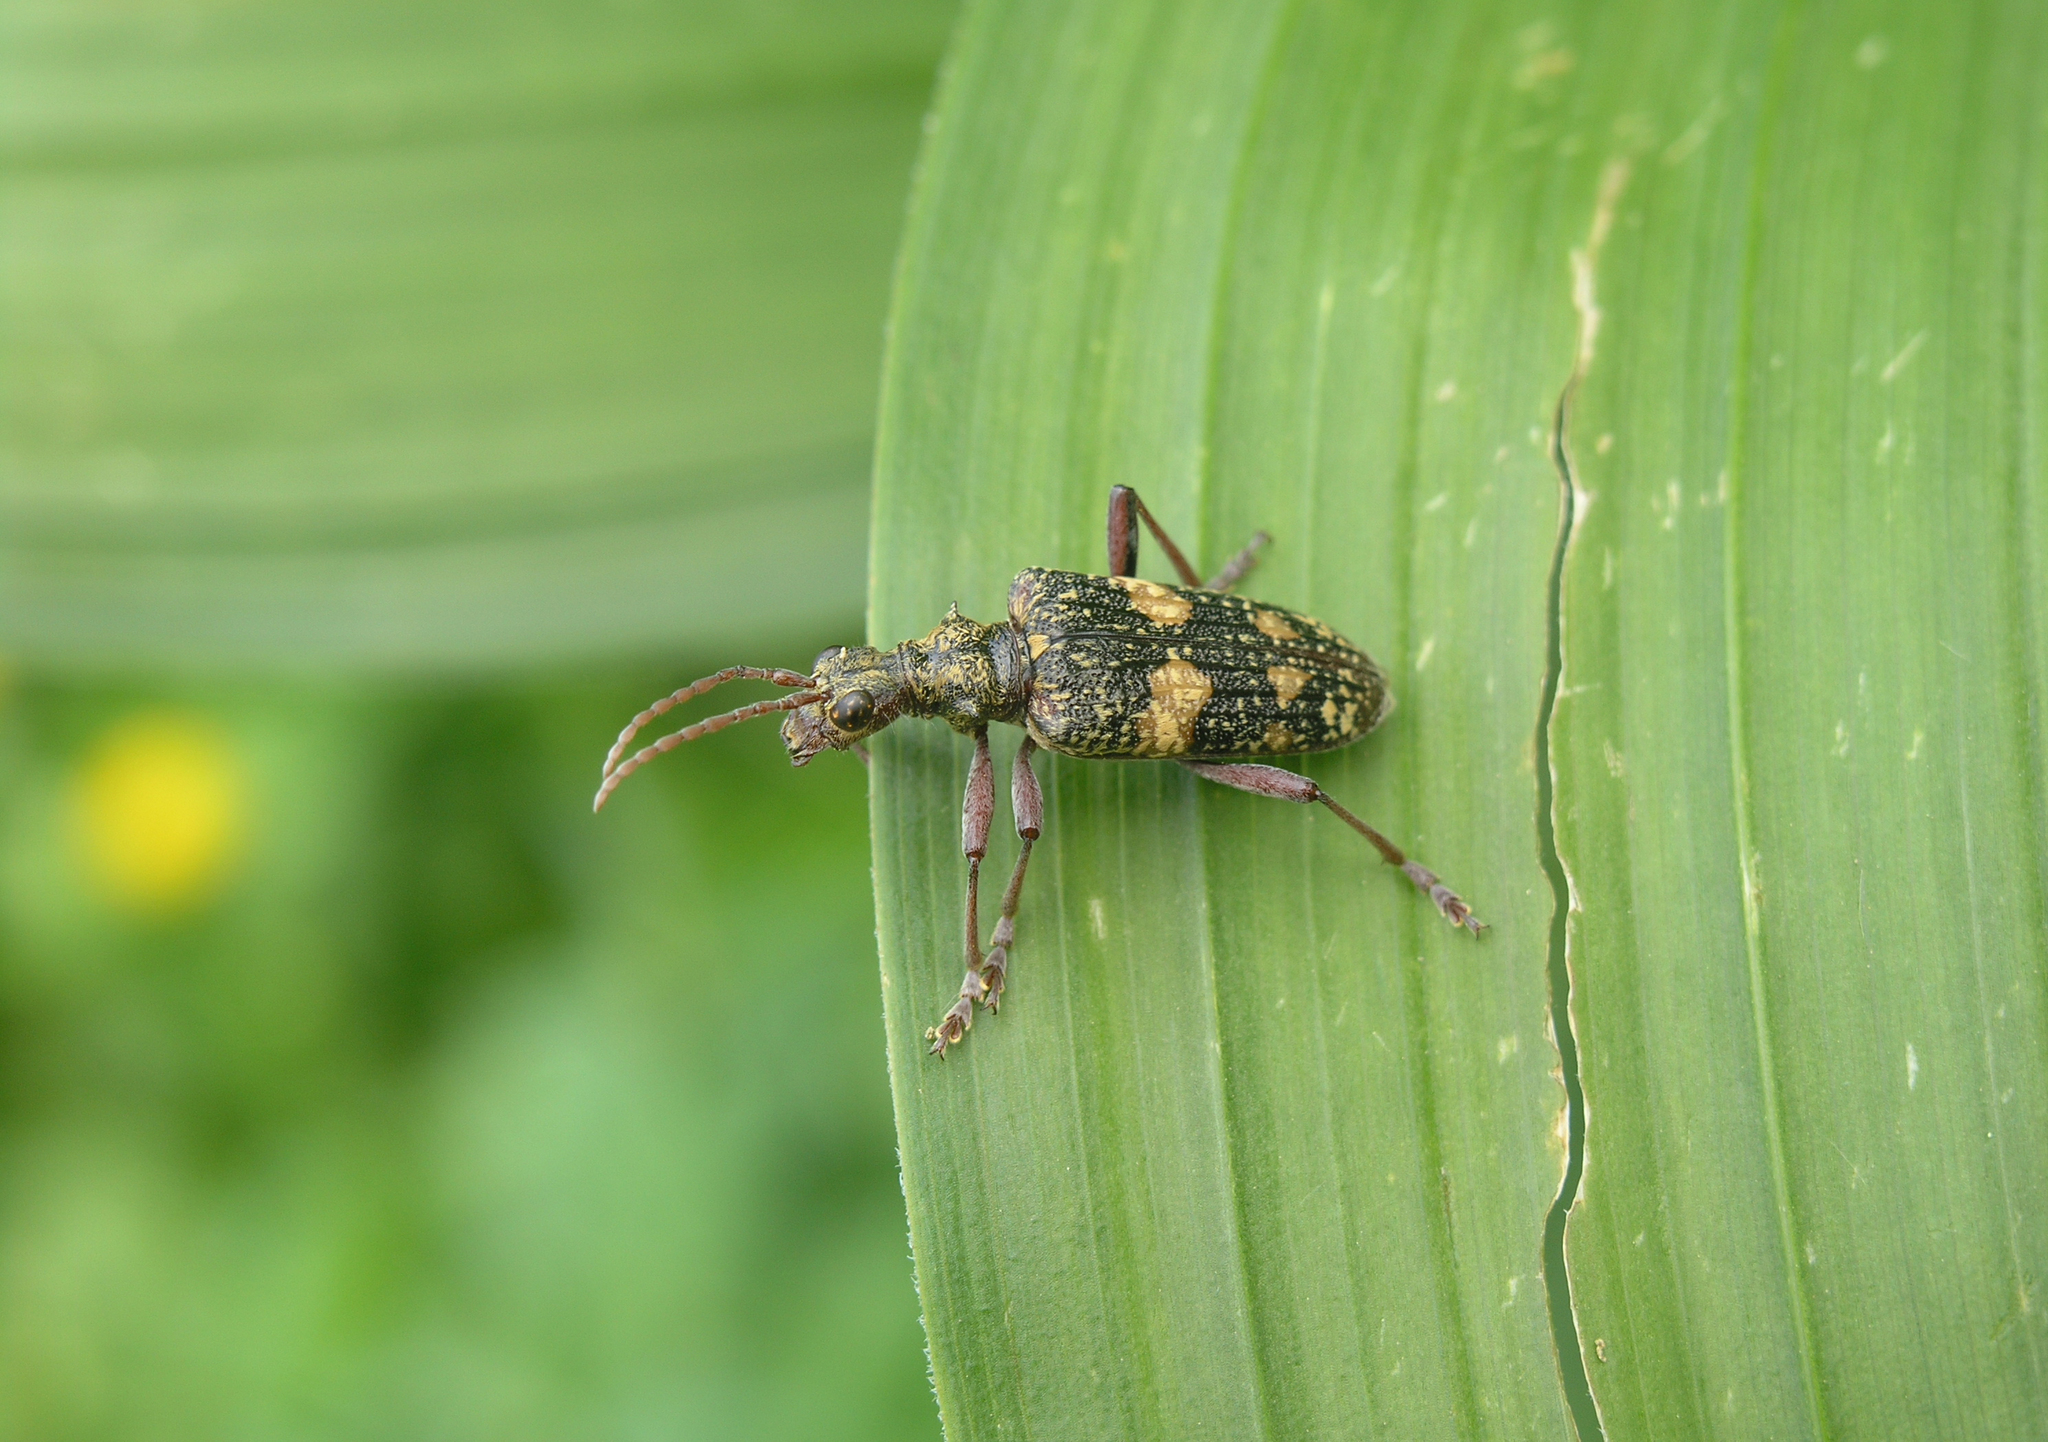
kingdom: Plantae
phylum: Tracheophyta
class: Liliopsida
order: Liliales
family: Melanthiaceae
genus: Veratrum
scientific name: Veratrum lobelianum
